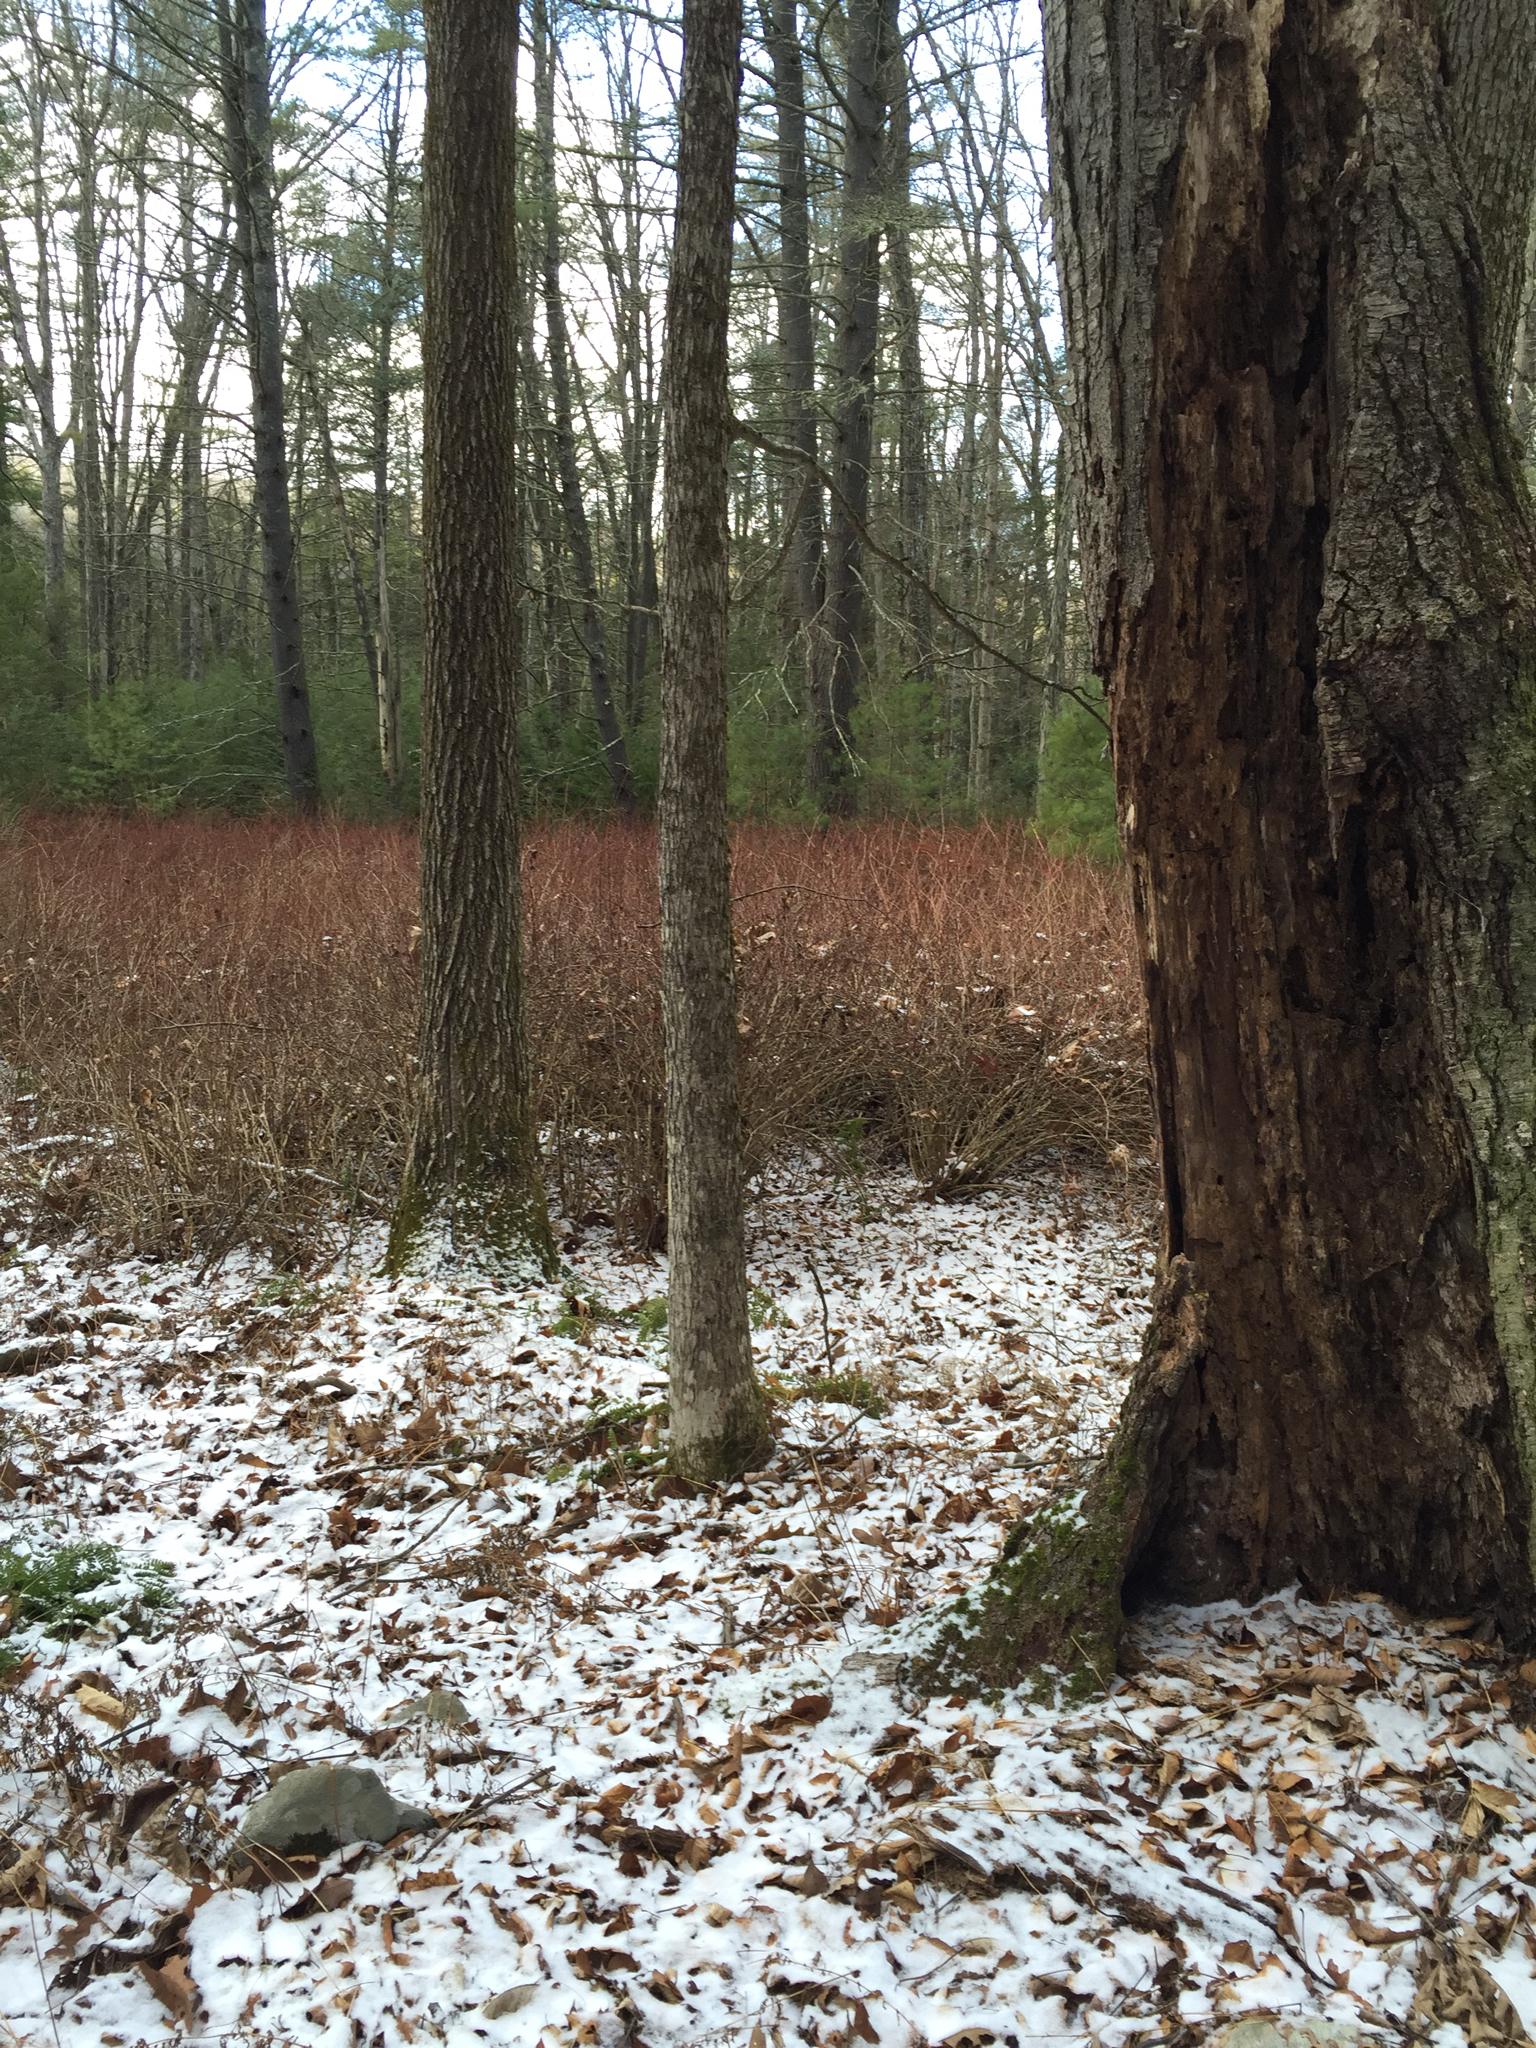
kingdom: Plantae
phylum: Tracheophyta
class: Magnoliopsida
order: Ranunculales
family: Berberidaceae
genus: Berberis
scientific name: Berberis thunbergii
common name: Japanese barberry
